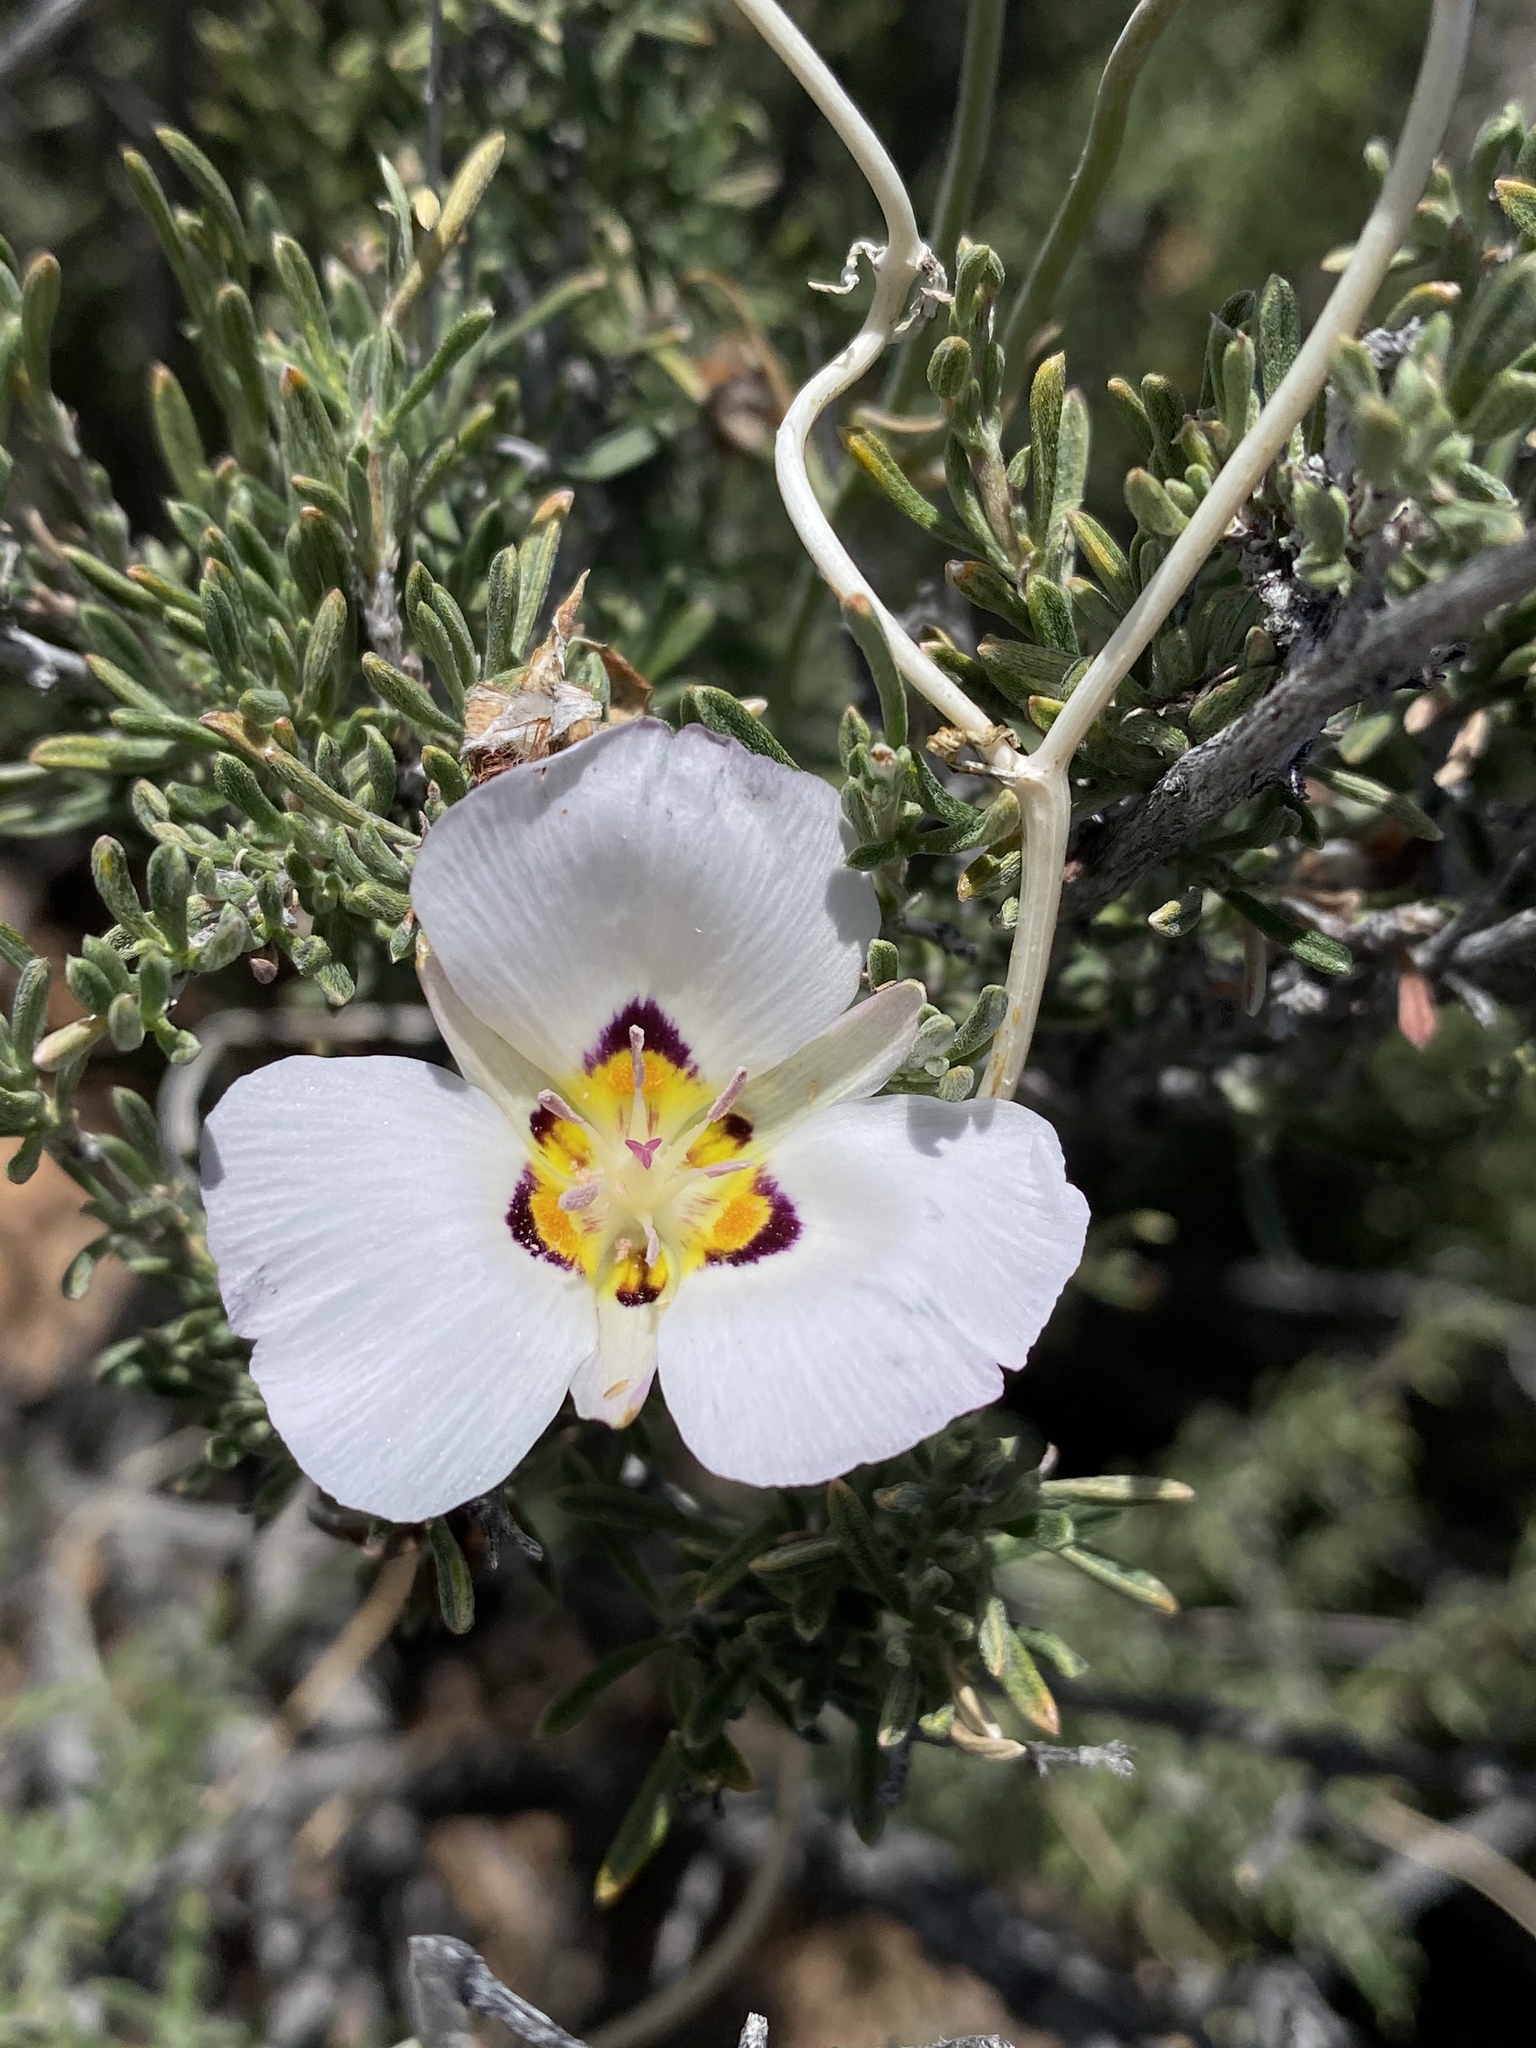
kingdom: Plantae
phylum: Tracheophyta
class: Liliopsida
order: Liliales
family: Liliaceae
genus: Calochortus
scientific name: Calochortus flexuosus
